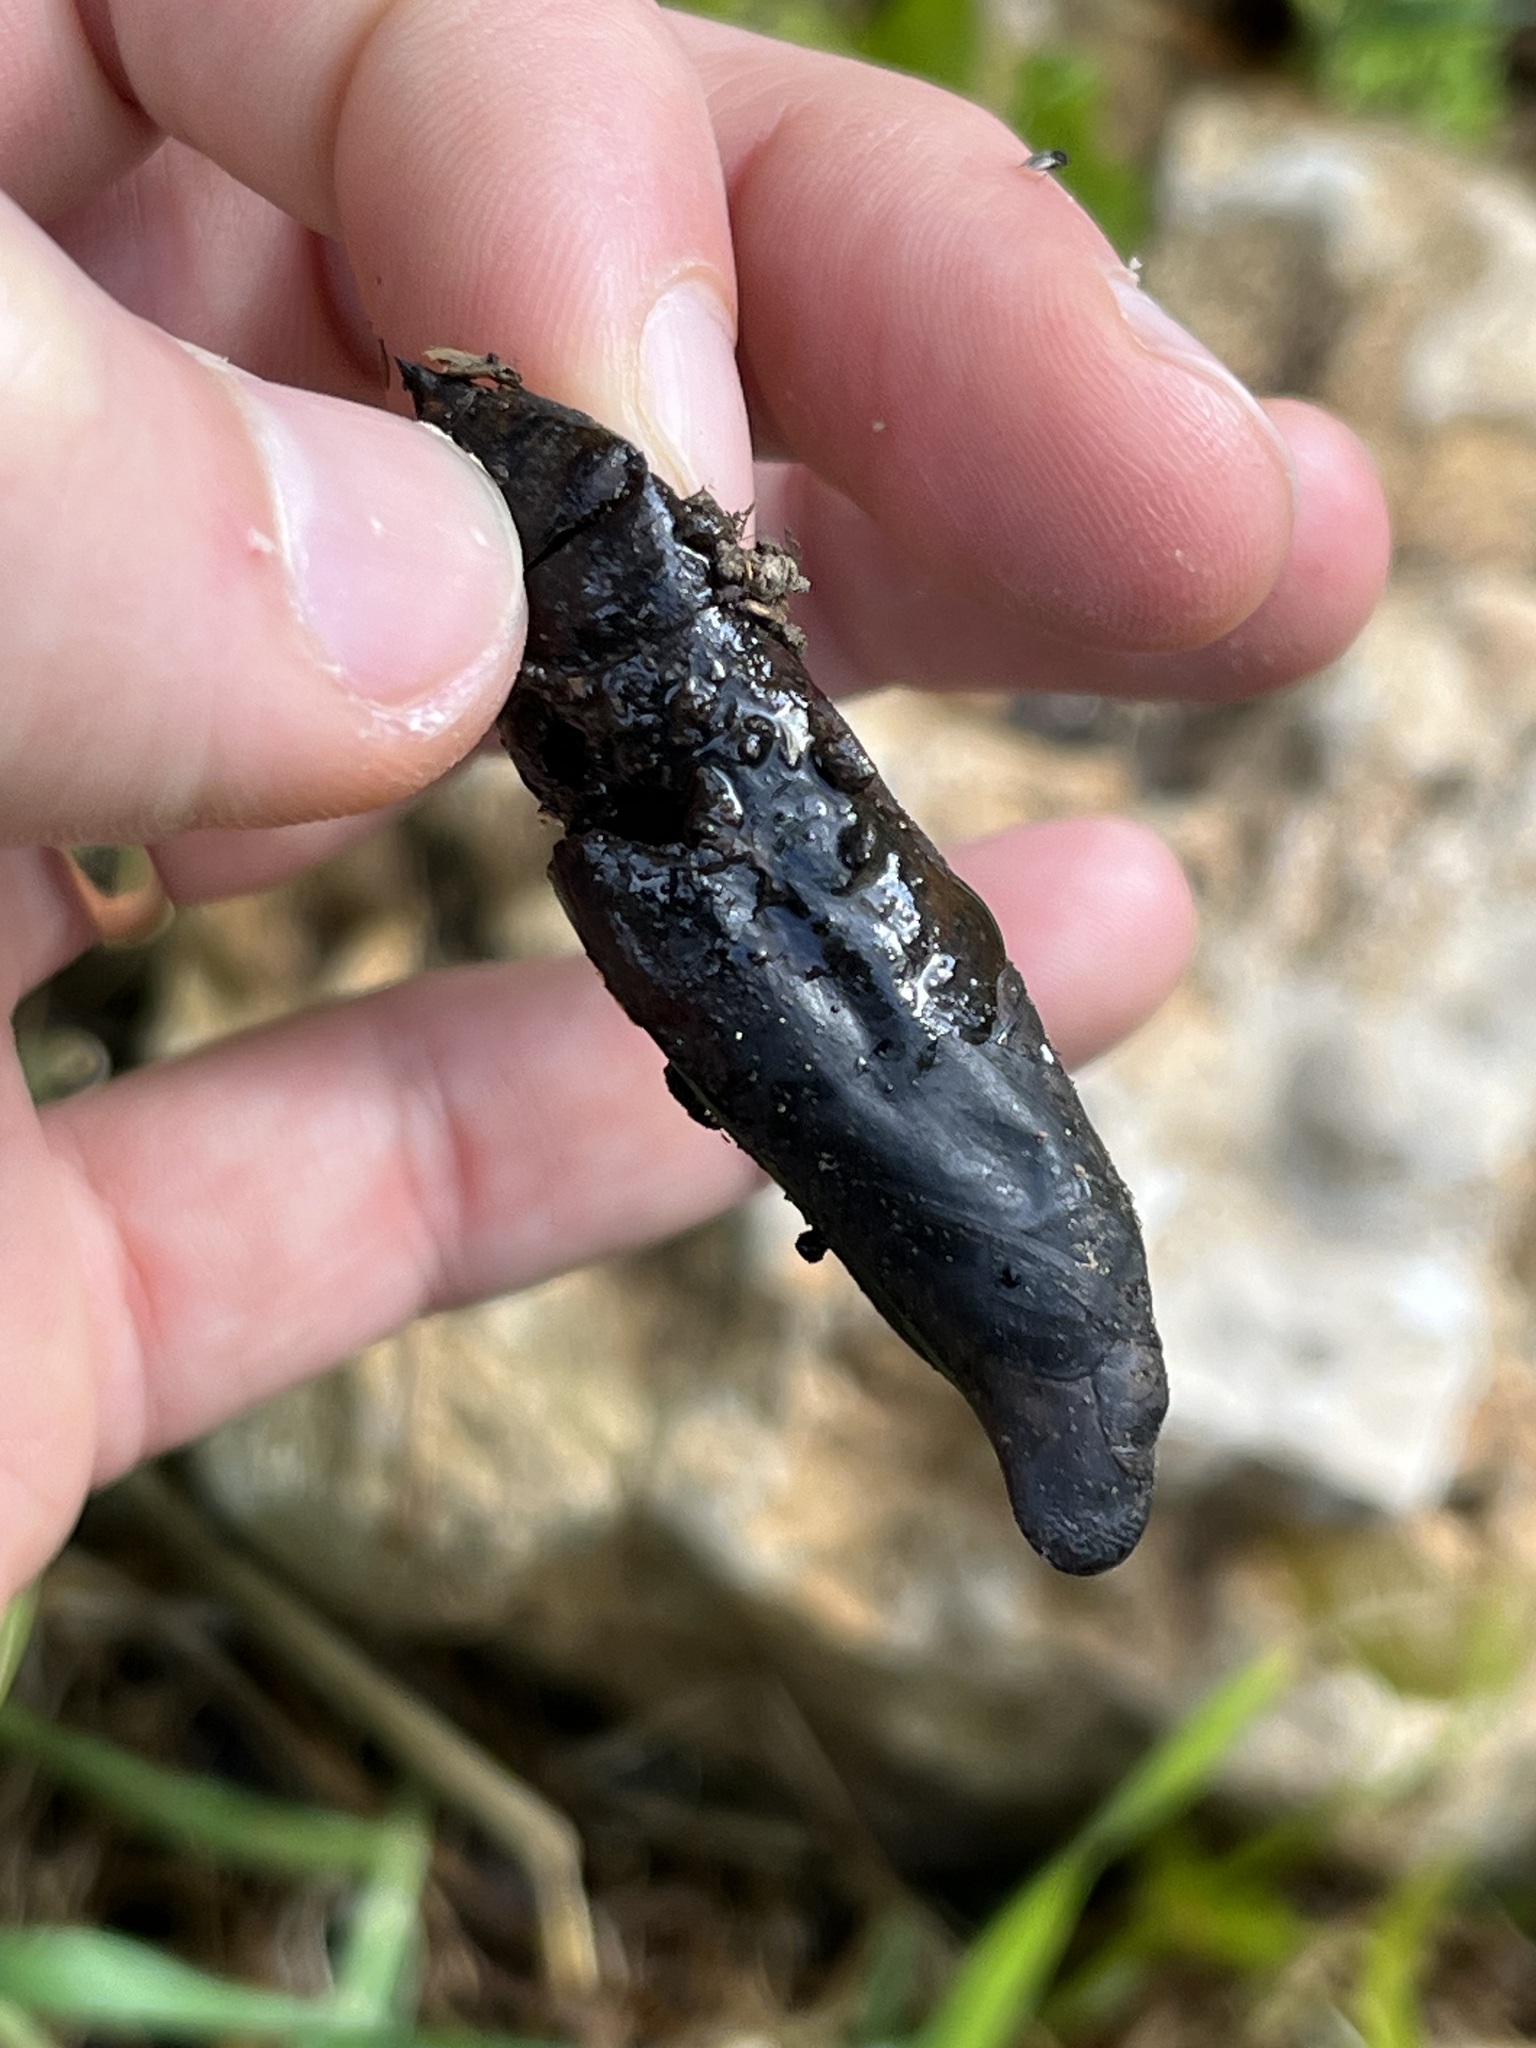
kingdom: Animalia
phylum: Arthropoda
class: Insecta
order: Lepidoptera
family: Sphingidae
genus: Theretra
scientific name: Theretra alecto
